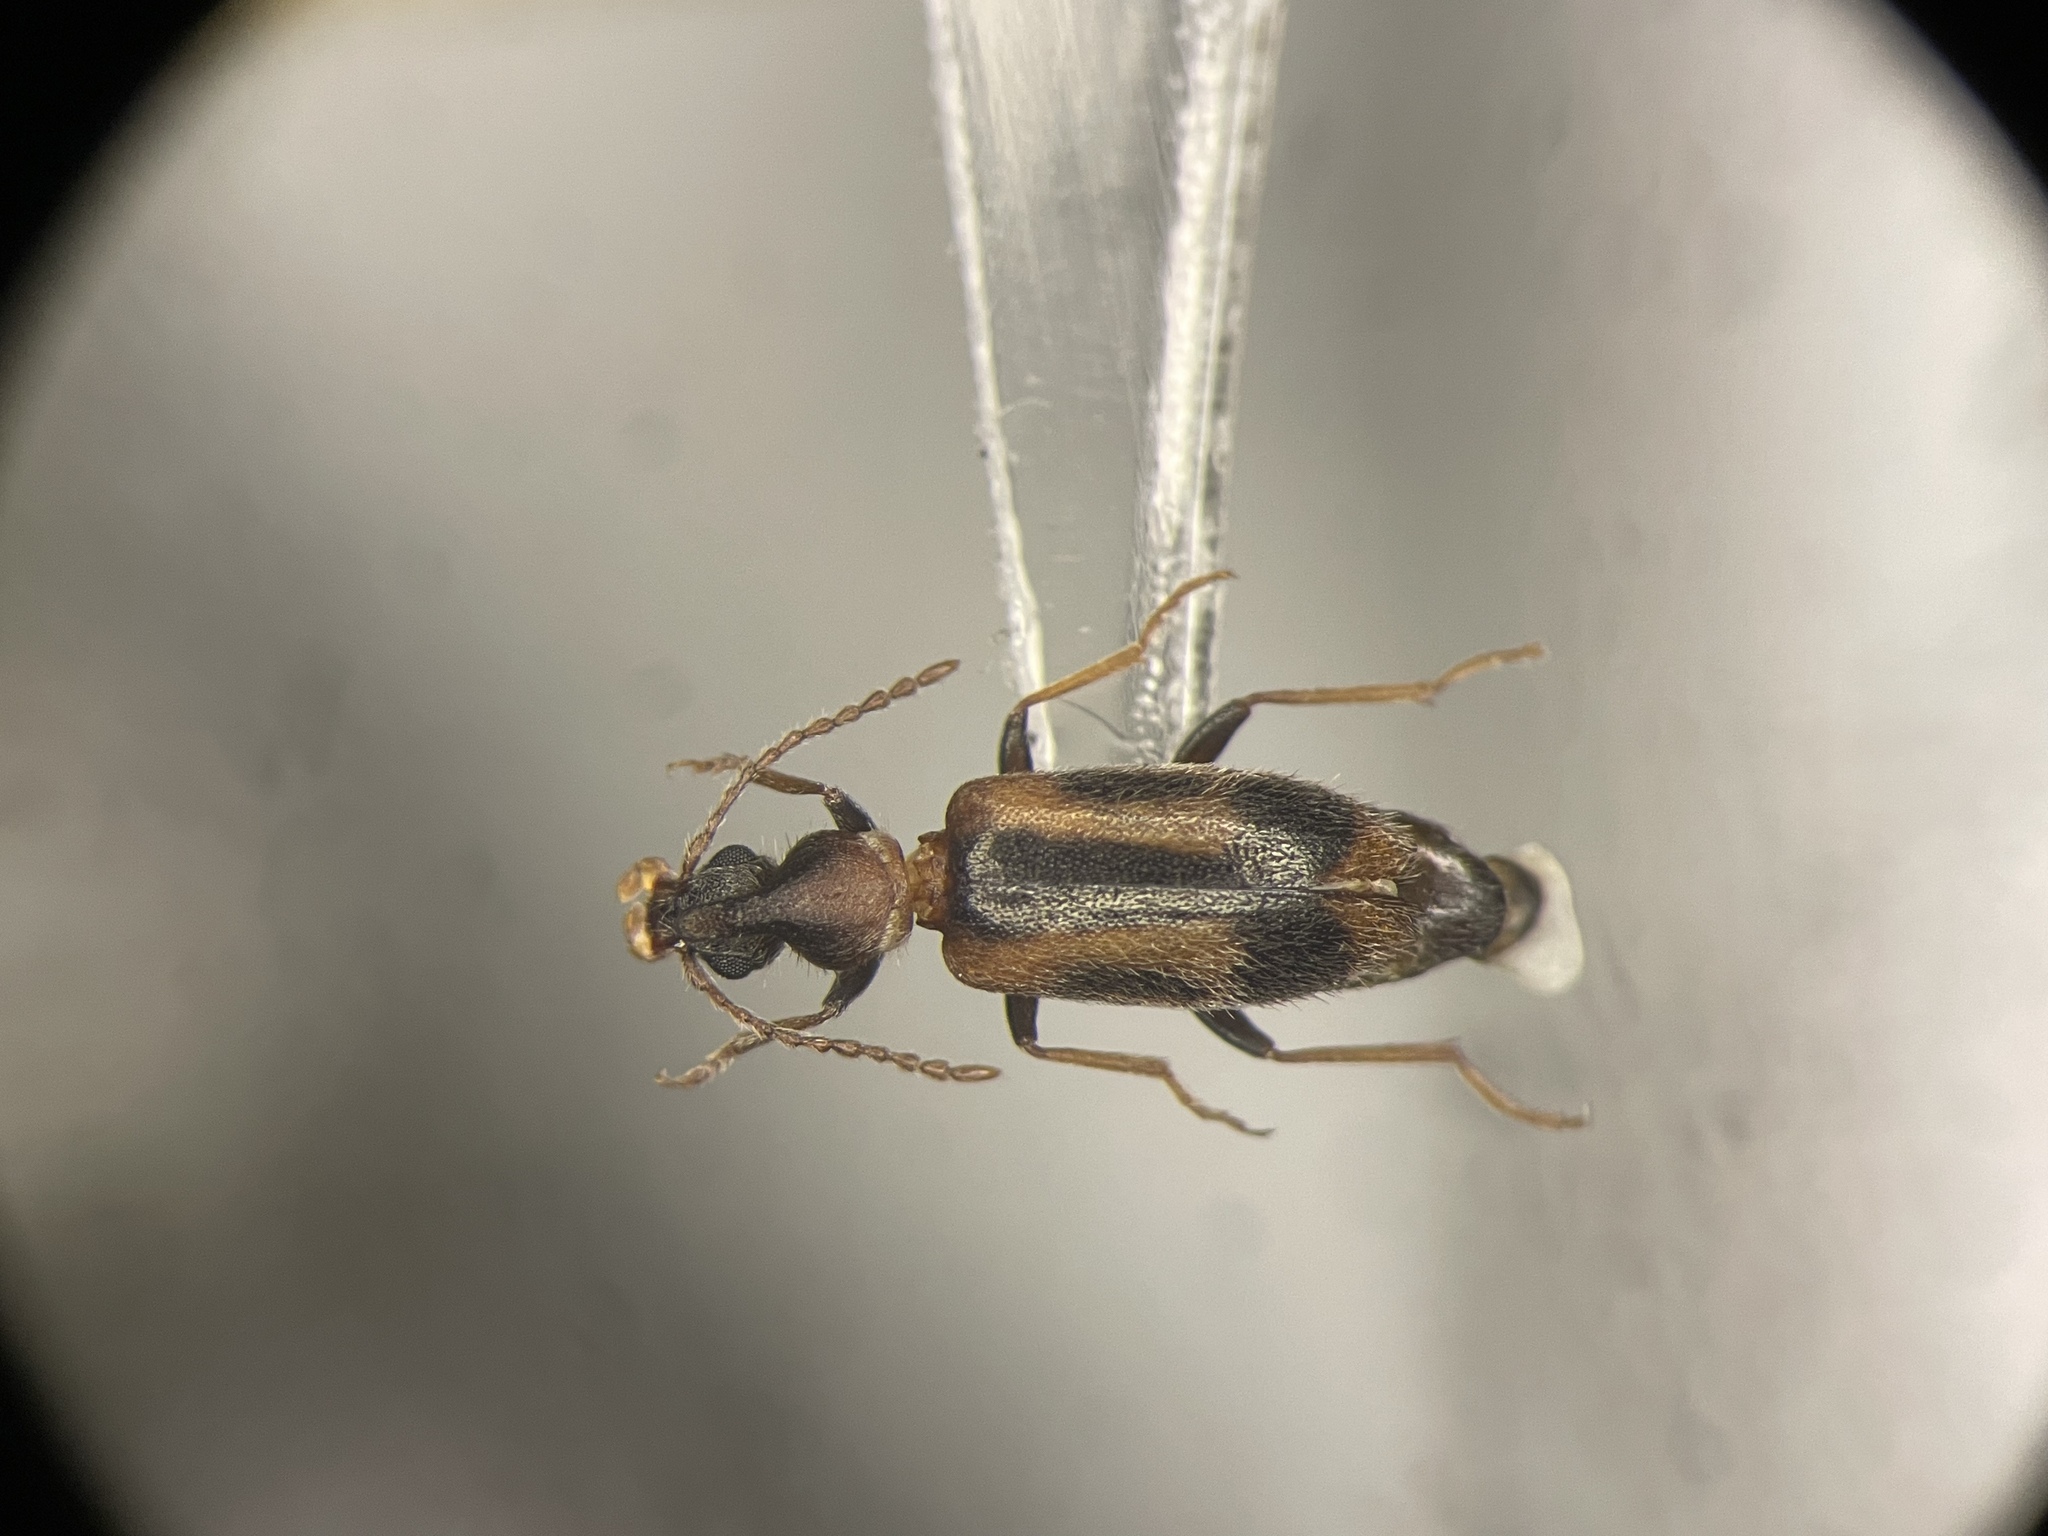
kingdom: Animalia
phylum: Arthropoda
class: Insecta
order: Coleoptera
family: Anthicidae
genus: Notoxus
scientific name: Notoxus anchora
